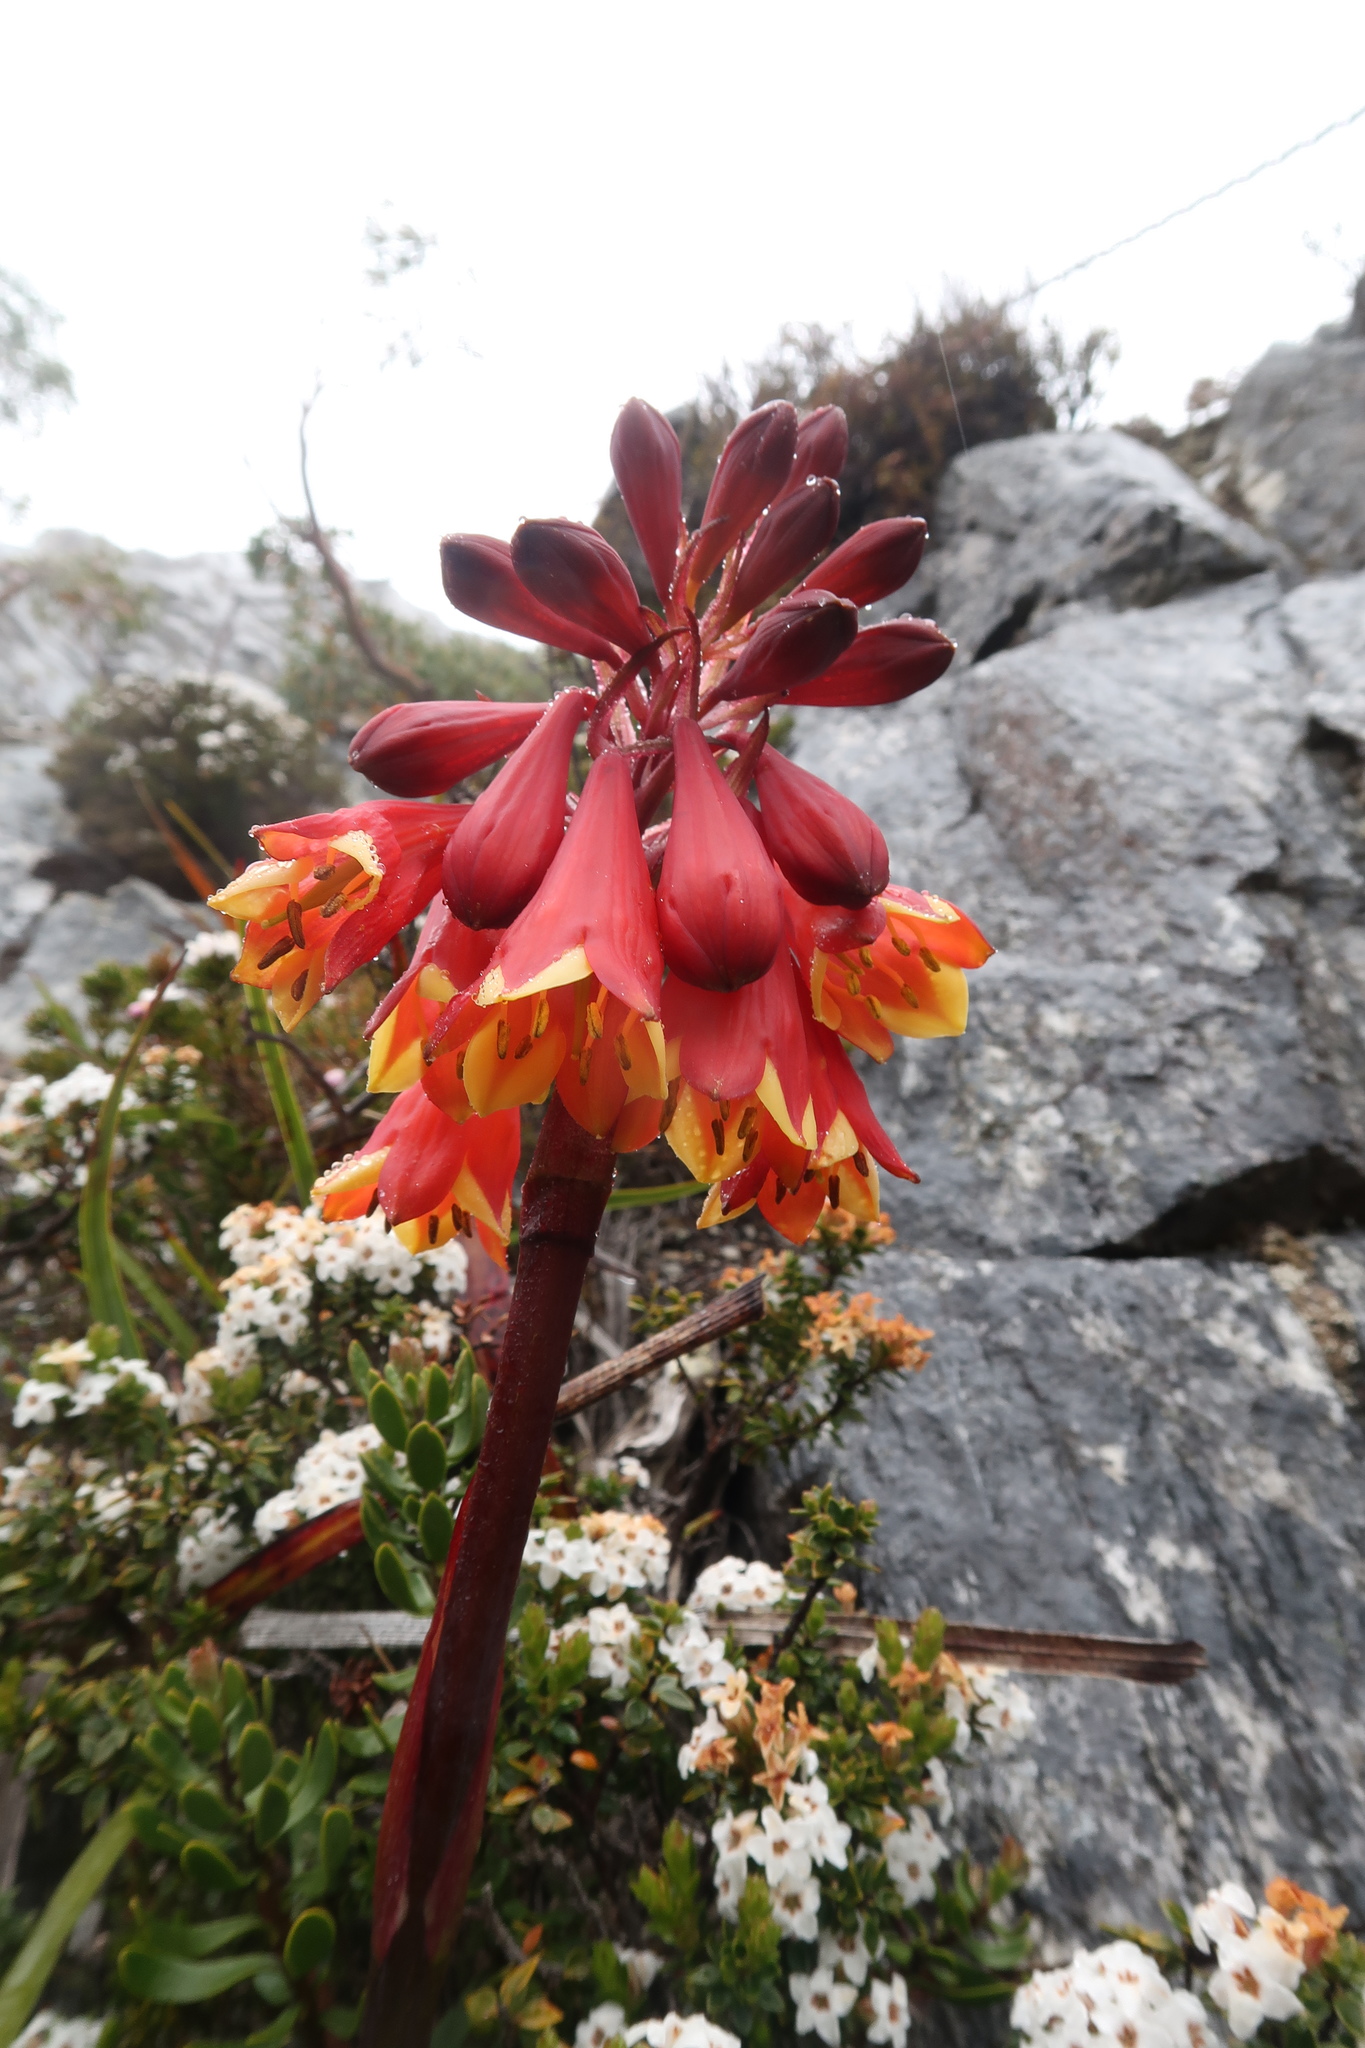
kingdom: Plantae
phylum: Tracheophyta
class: Liliopsida
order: Asparagales
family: Blandfordiaceae
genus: Blandfordia
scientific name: Blandfordia punicea
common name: Tasmanian christmas-bell
